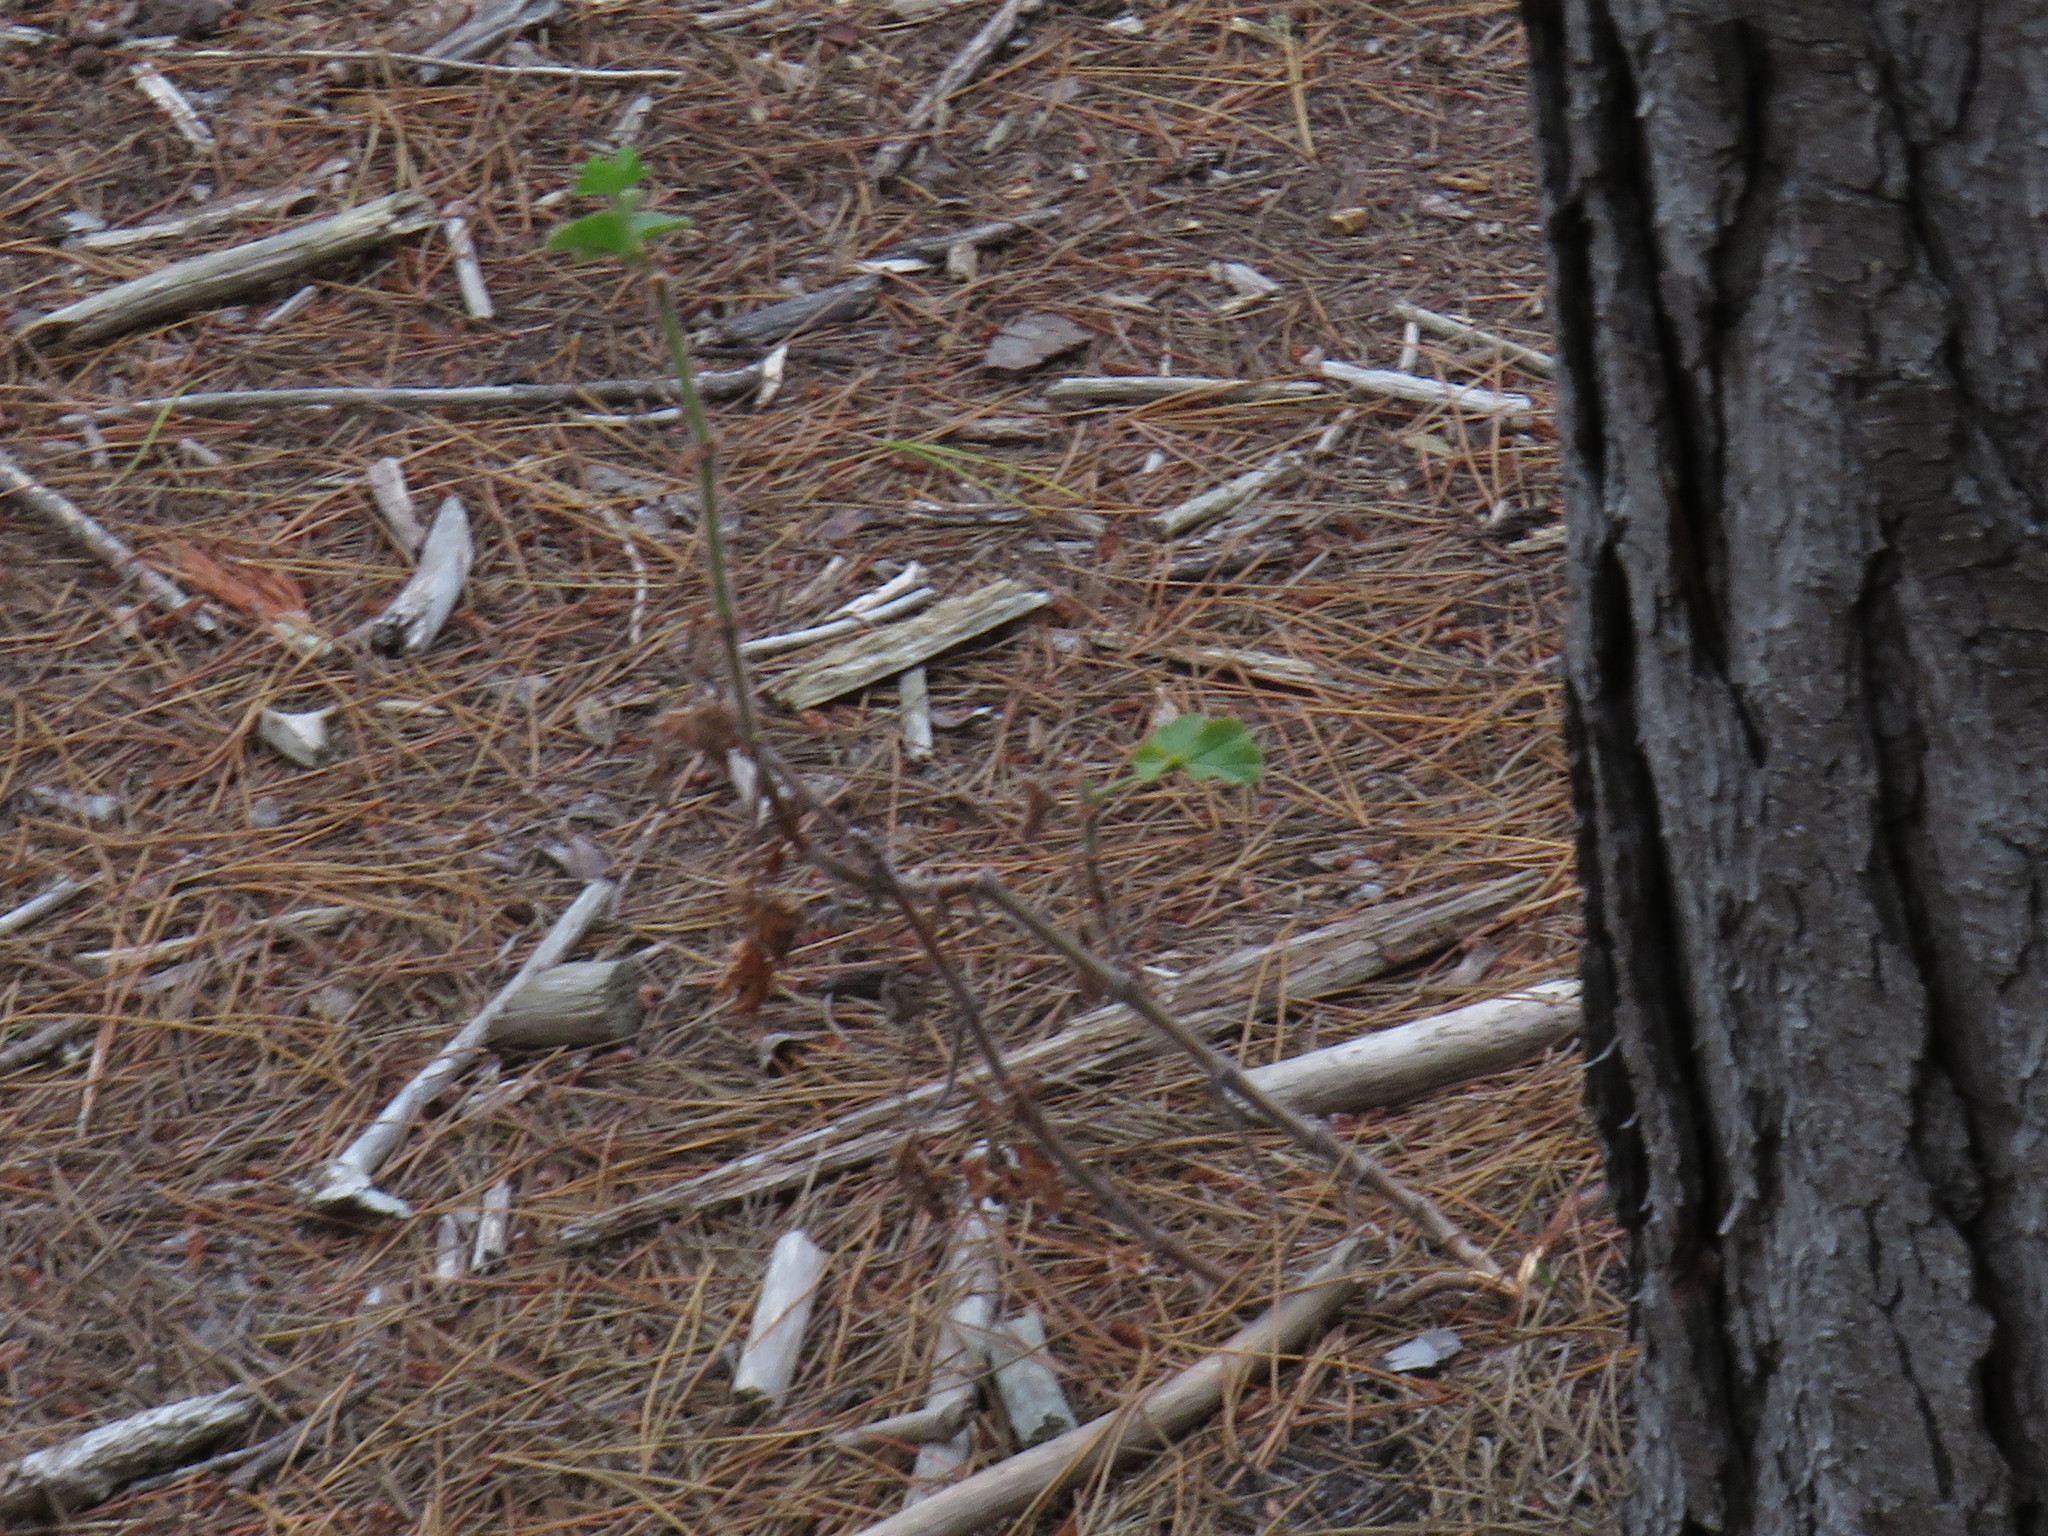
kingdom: Plantae
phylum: Tracheophyta
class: Magnoliopsida
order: Geraniales
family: Geraniaceae
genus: Pelargonium
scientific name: Pelargonium capitatum
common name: Rose scented geranium
